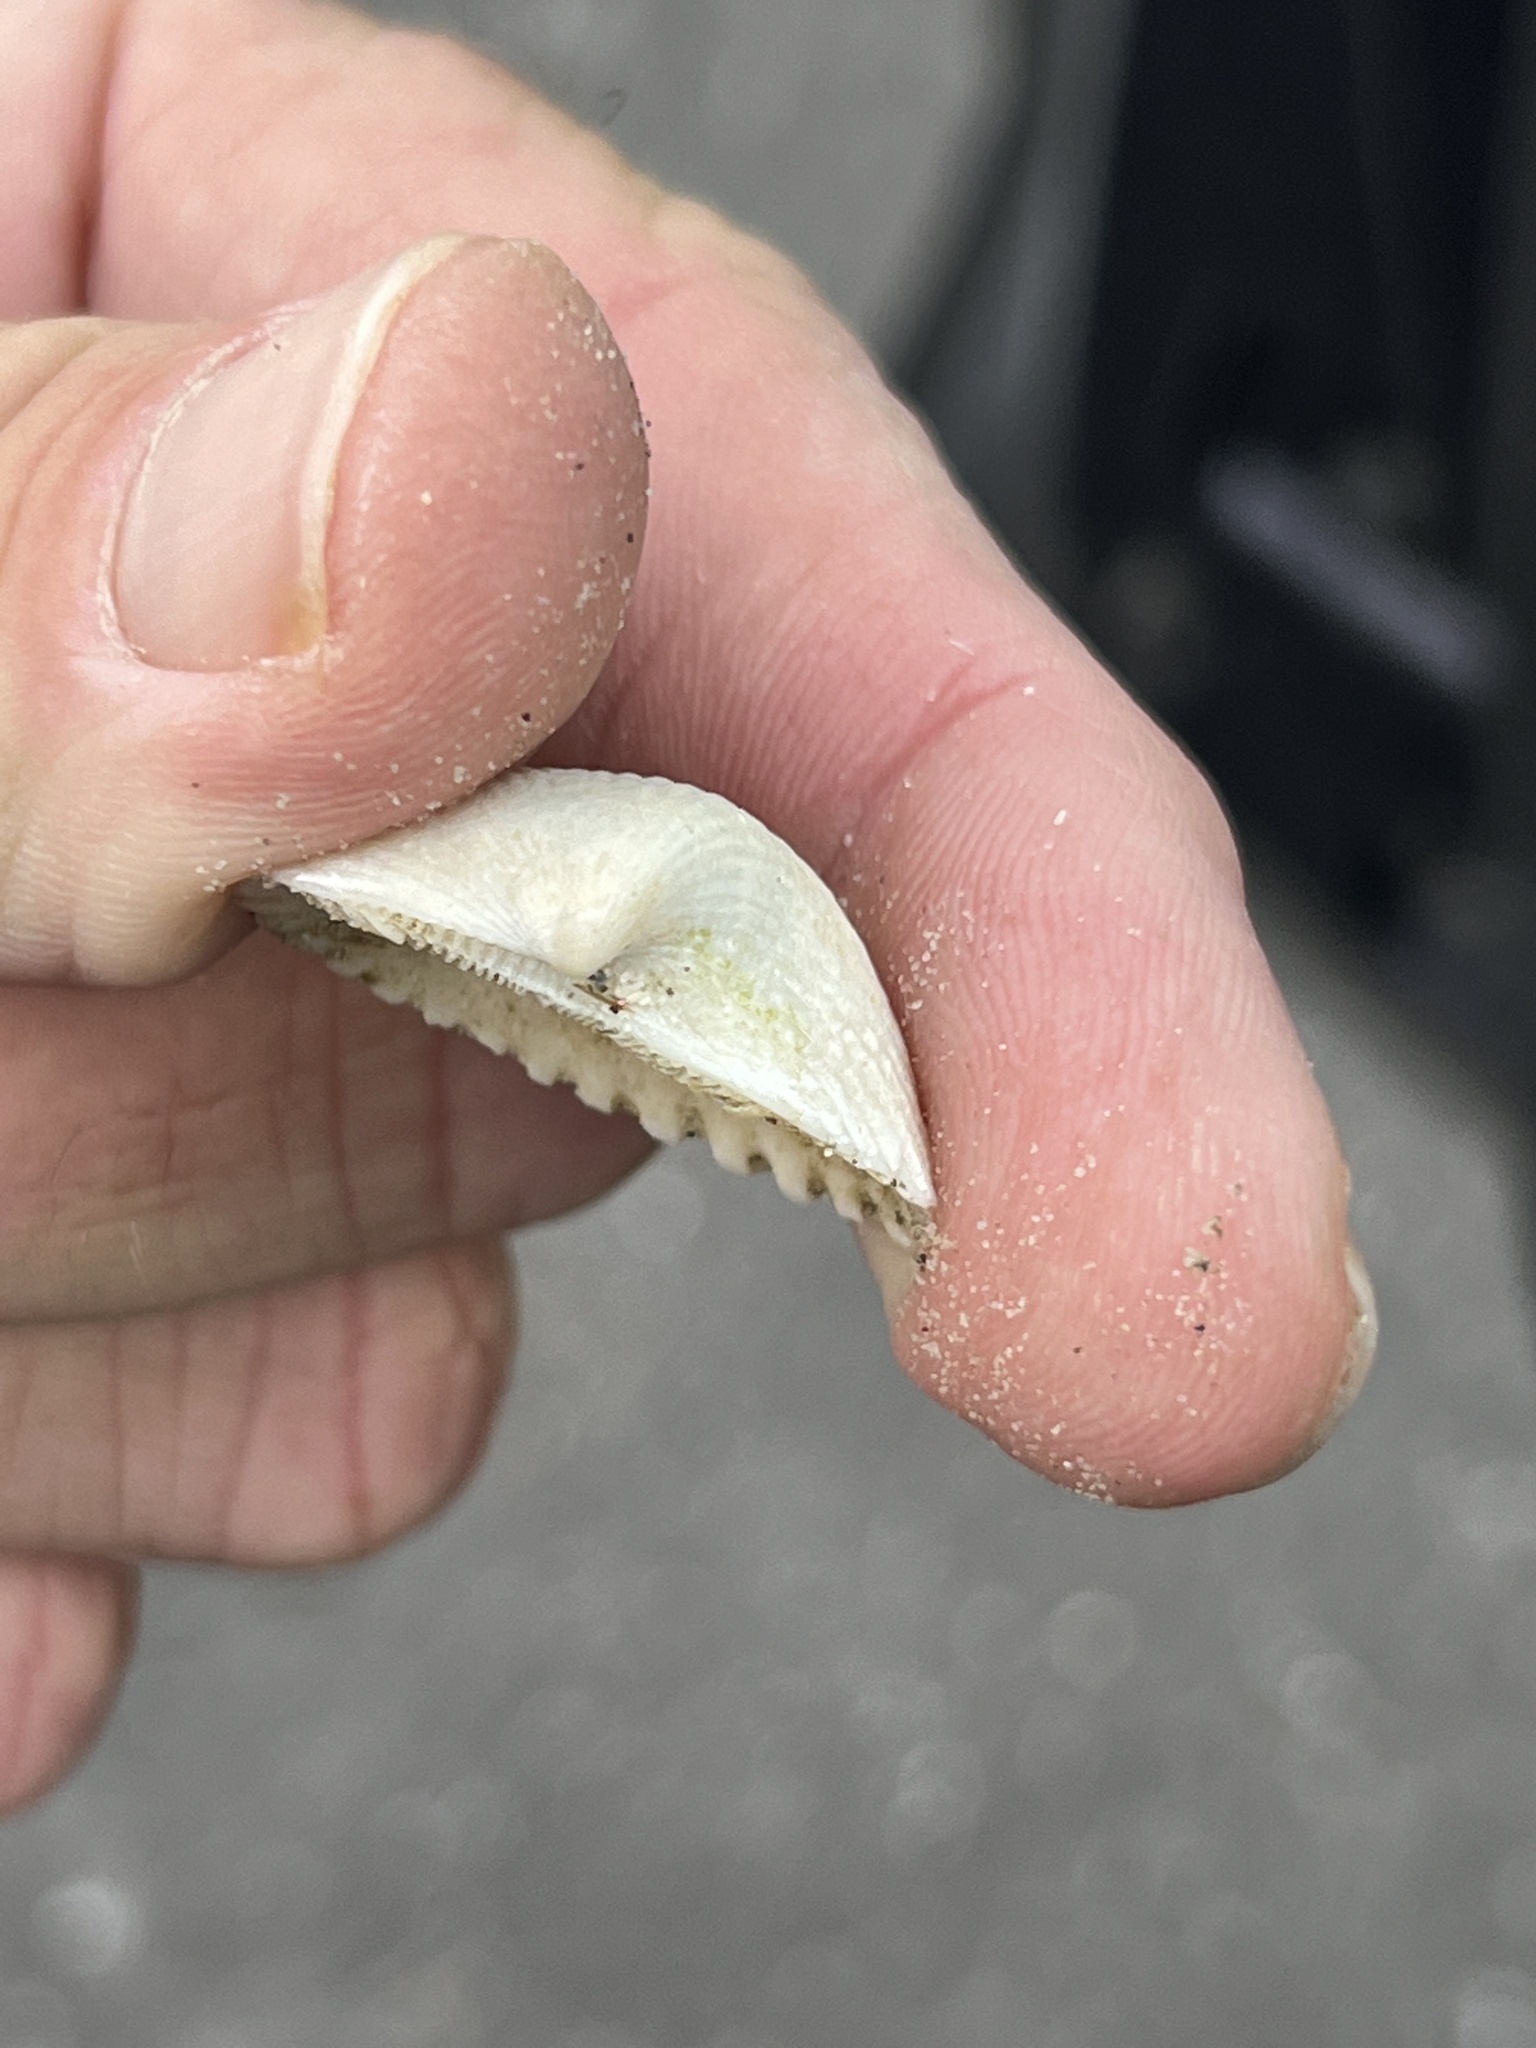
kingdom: Animalia
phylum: Mollusca
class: Bivalvia
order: Arcida
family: Noetiidae
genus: Noetia
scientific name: Noetia ponderosa
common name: Ponderous ark
